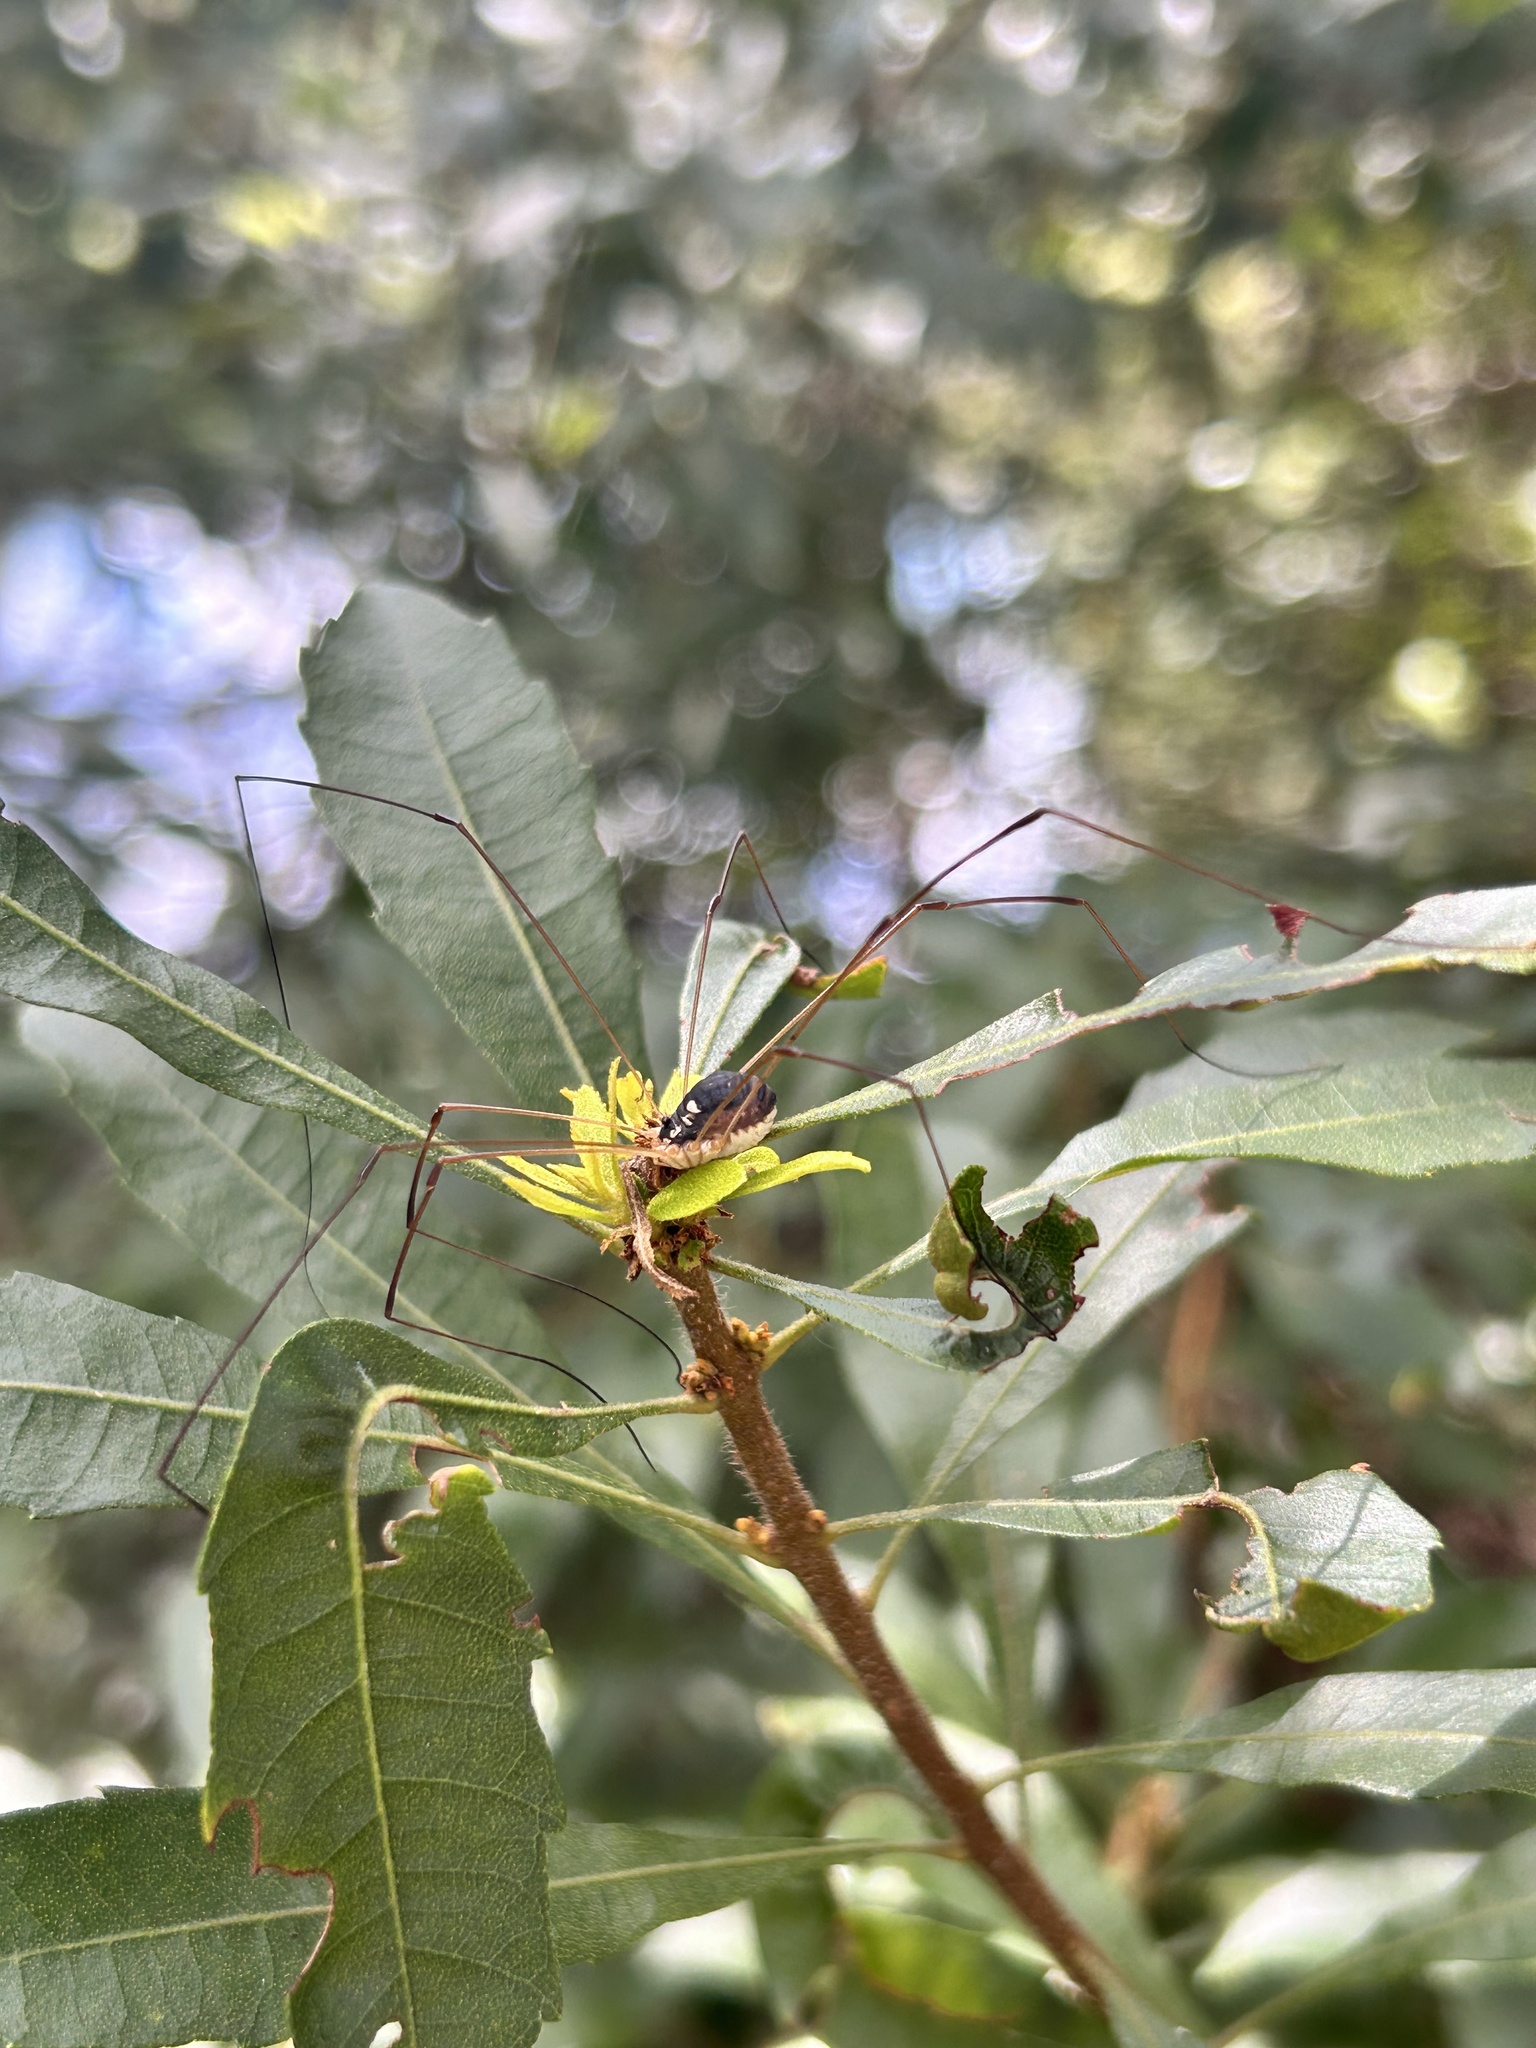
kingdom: Animalia
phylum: Arthropoda
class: Arachnida
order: Opiliones
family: Sclerosomatidae
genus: Leiobunum
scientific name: Leiobunum bimaculatum
